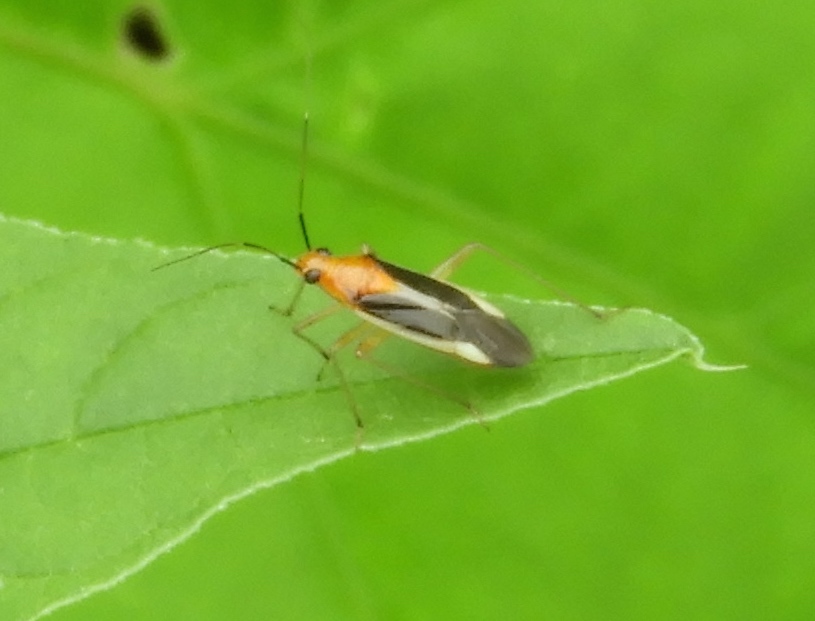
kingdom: Animalia
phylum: Arthropoda
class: Insecta
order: Hemiptera
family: Miridae
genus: Ganocapsus
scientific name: Ganocapsus filiformis
